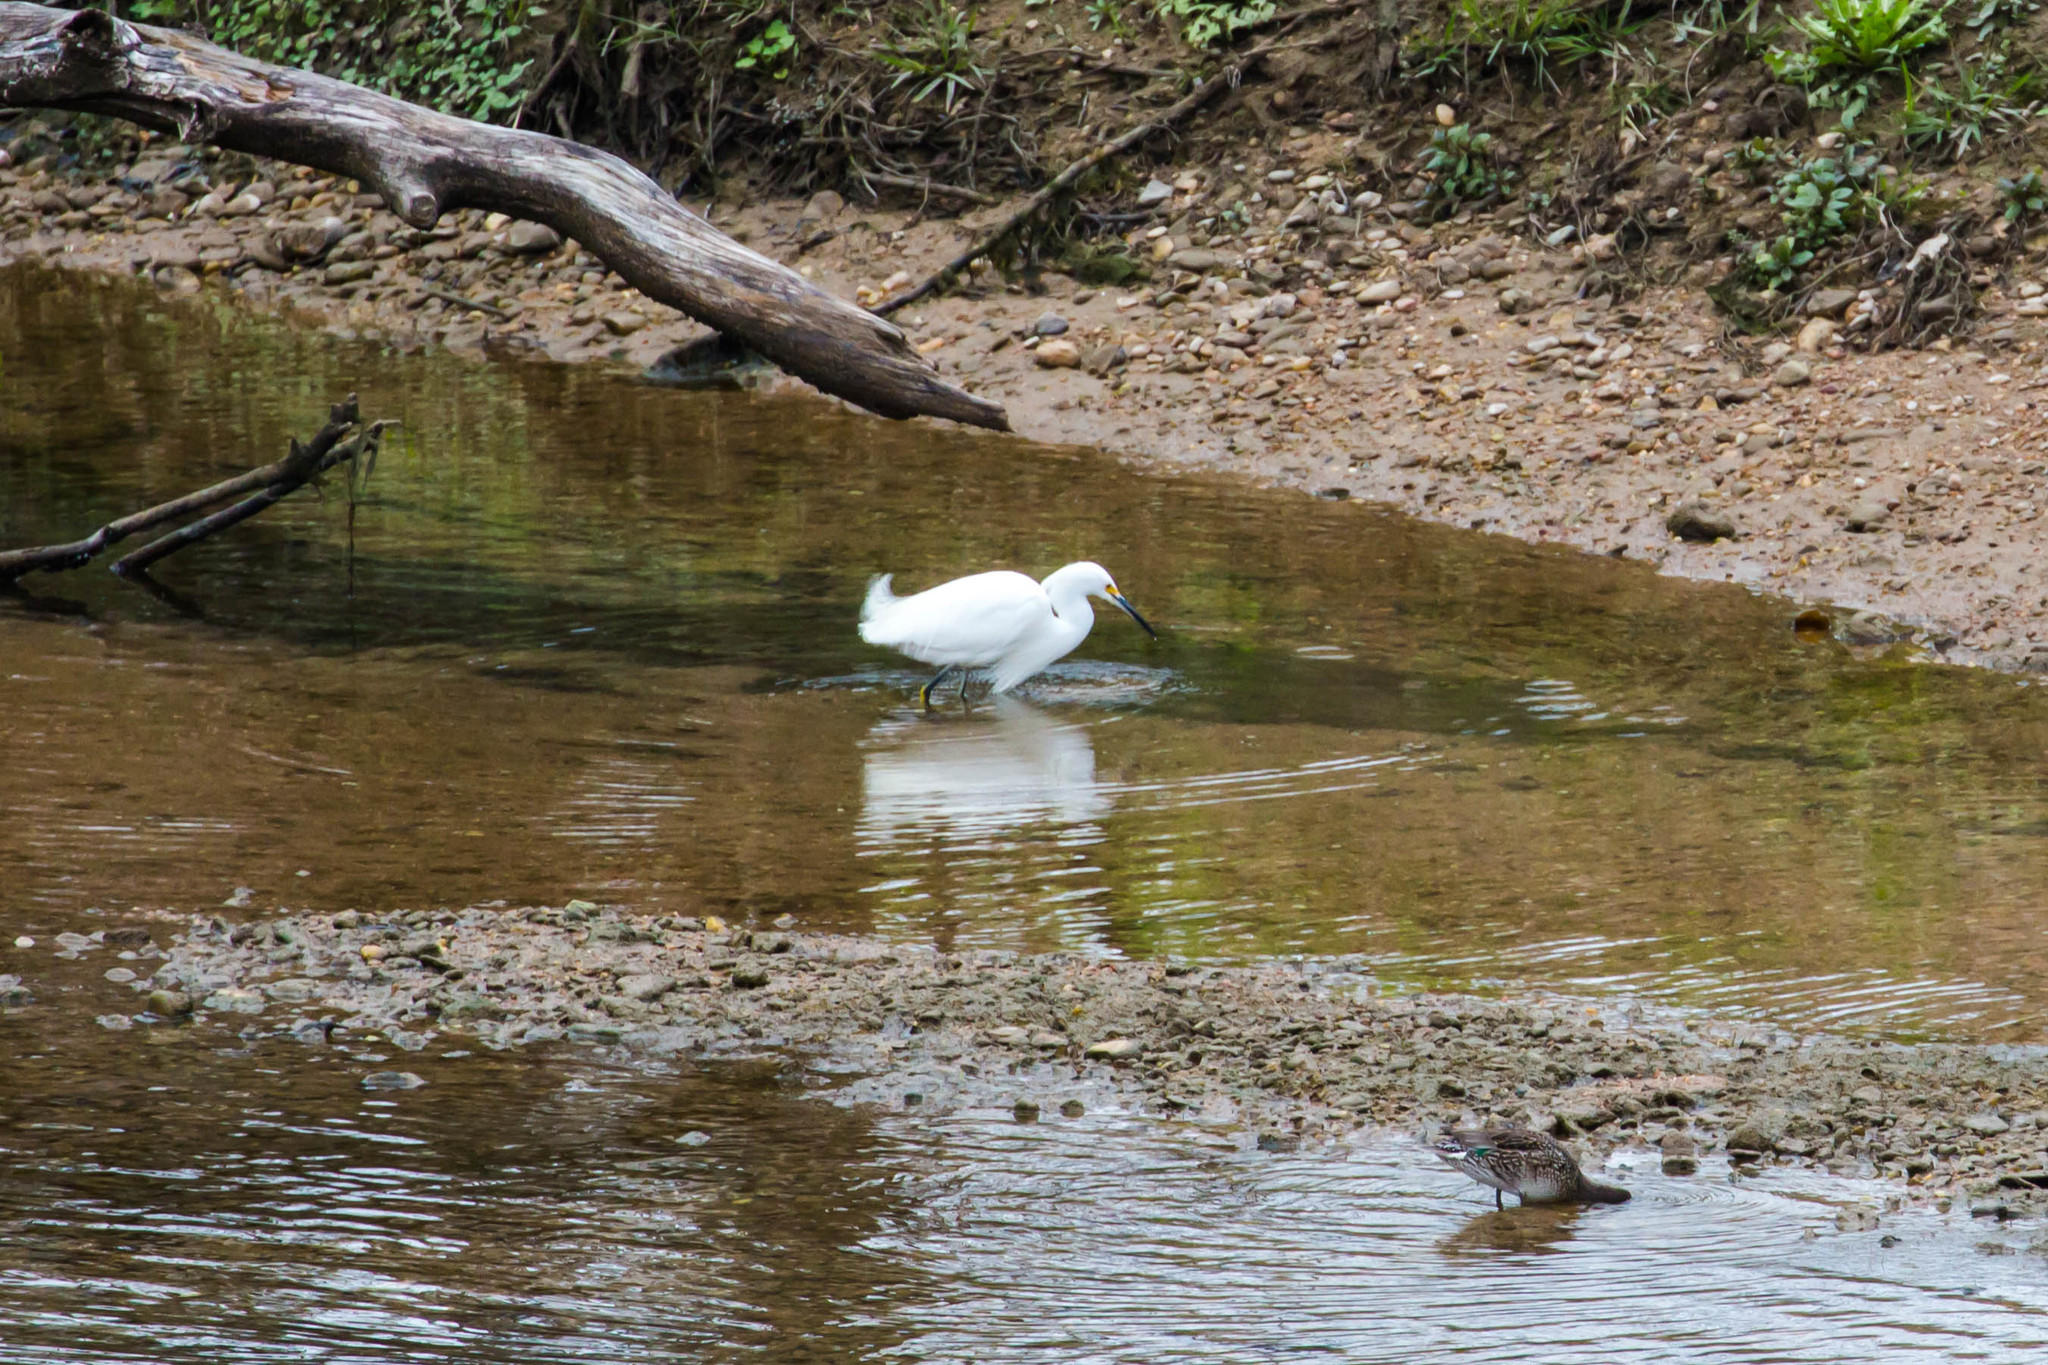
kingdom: Animalia
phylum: Chordata
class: Aves
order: Pelecaniformes
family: Ardeidae
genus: Egretta
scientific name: Egretta thula
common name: Snowy egret
